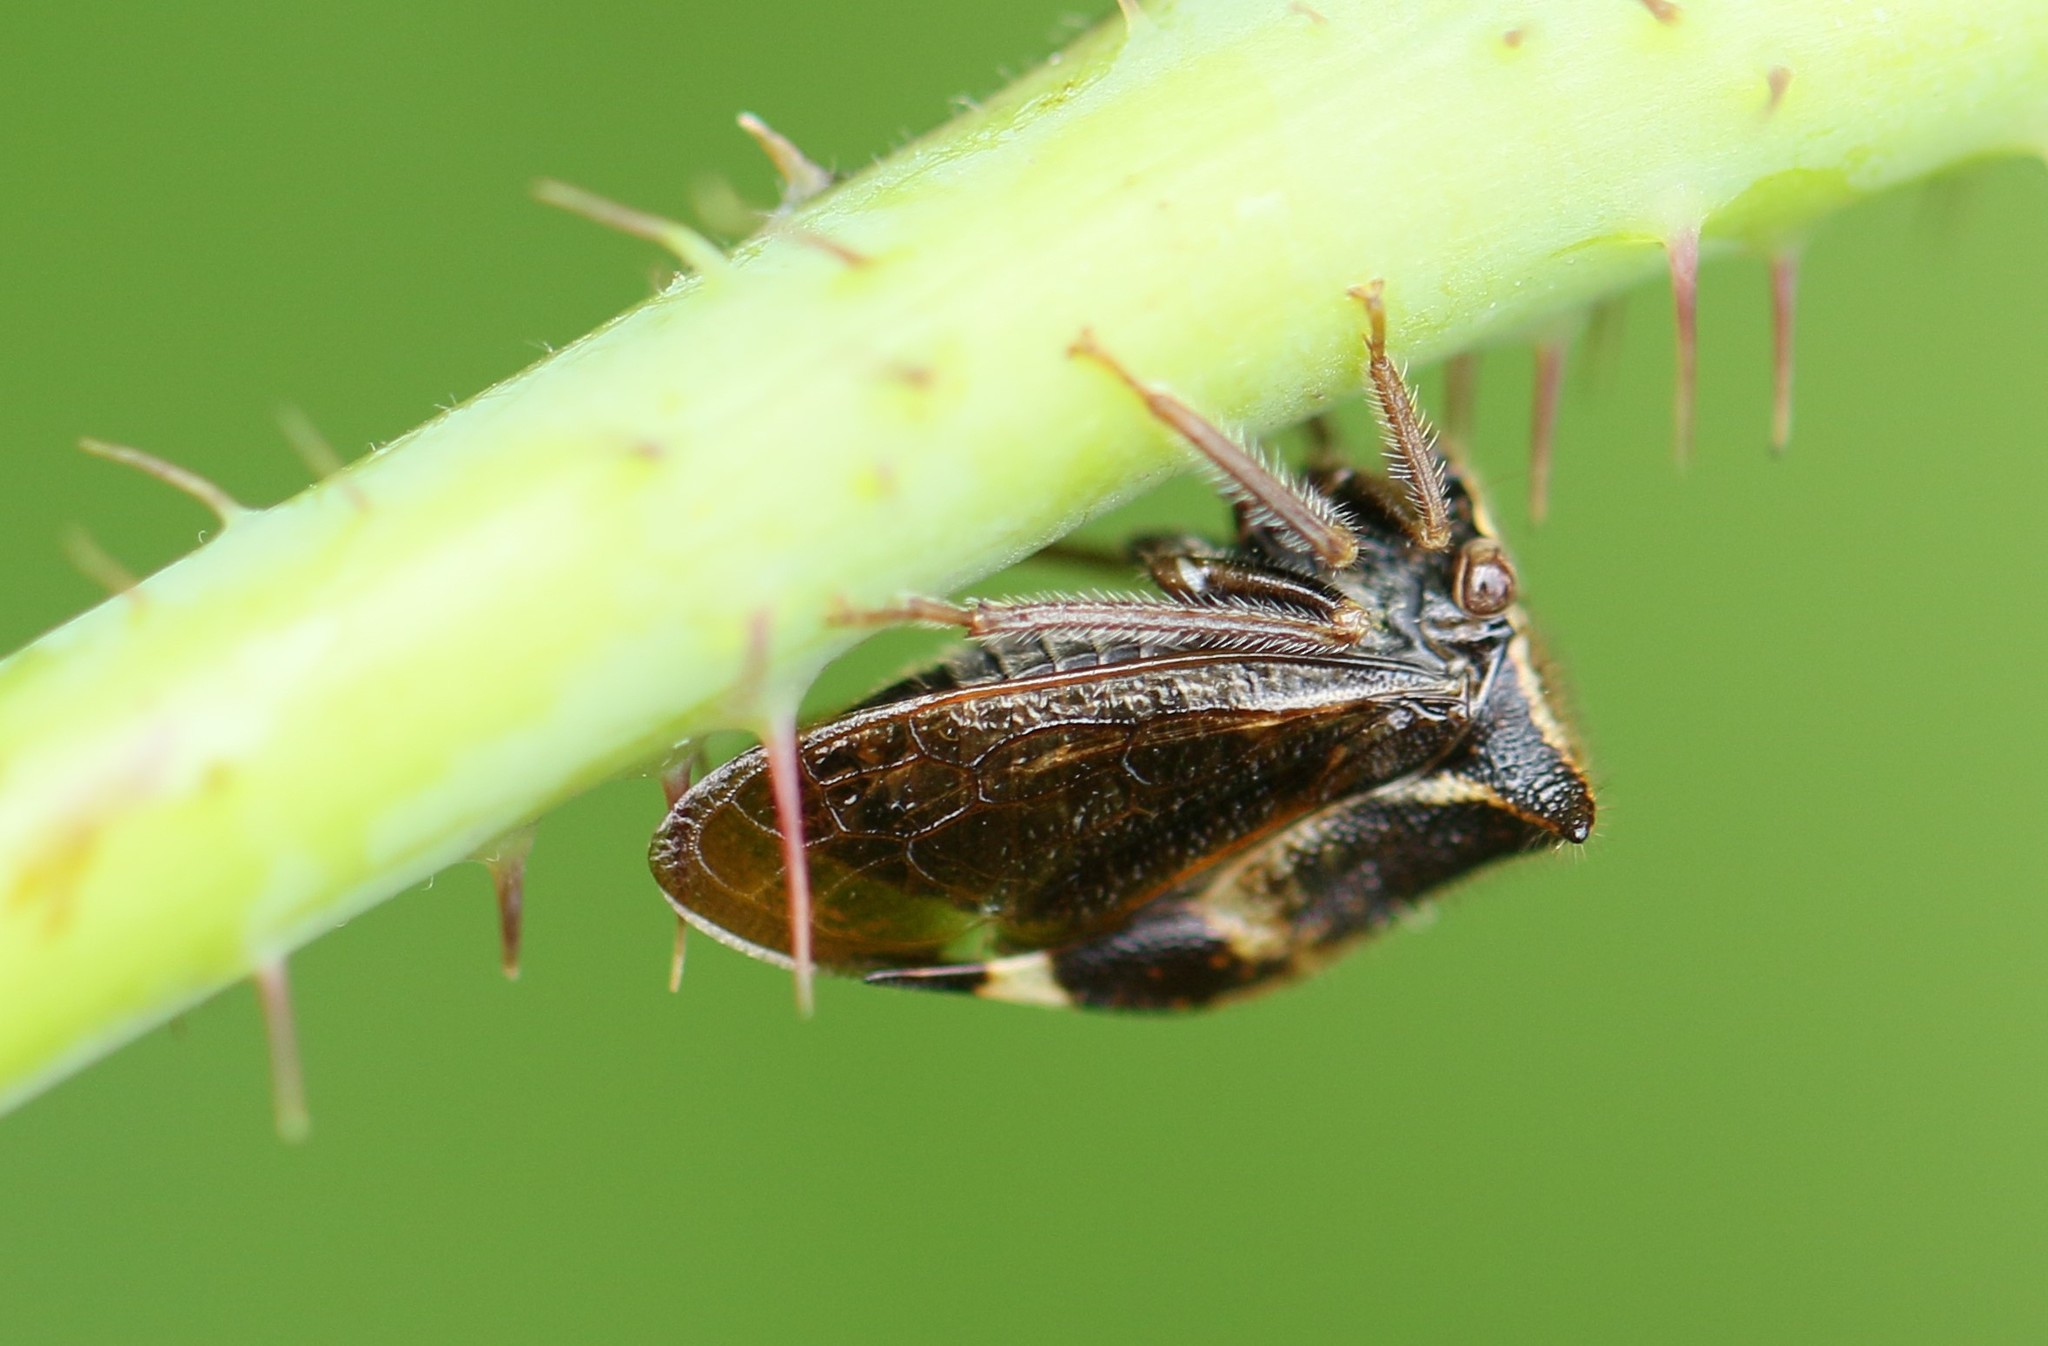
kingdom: Animalia
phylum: Arthropoda
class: Insecta
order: Hemiptera
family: Membracidae
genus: Stictocephala
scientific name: Stictocephala diceros
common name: Two-horned treehopper
